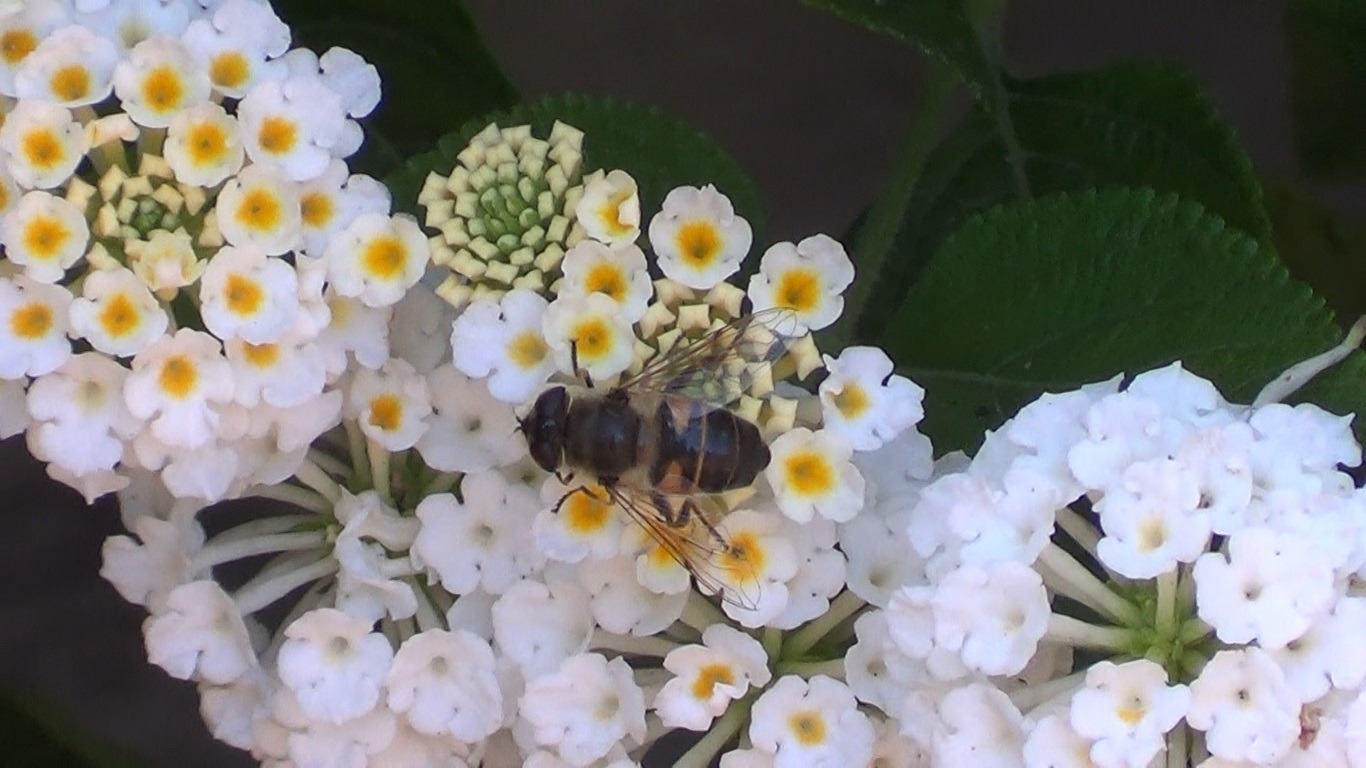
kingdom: Animalia
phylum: Arthropoda
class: Insecta
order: Diptera
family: Syrphidae
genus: Eristalis
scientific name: Eristalis tenax
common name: Drone fly
